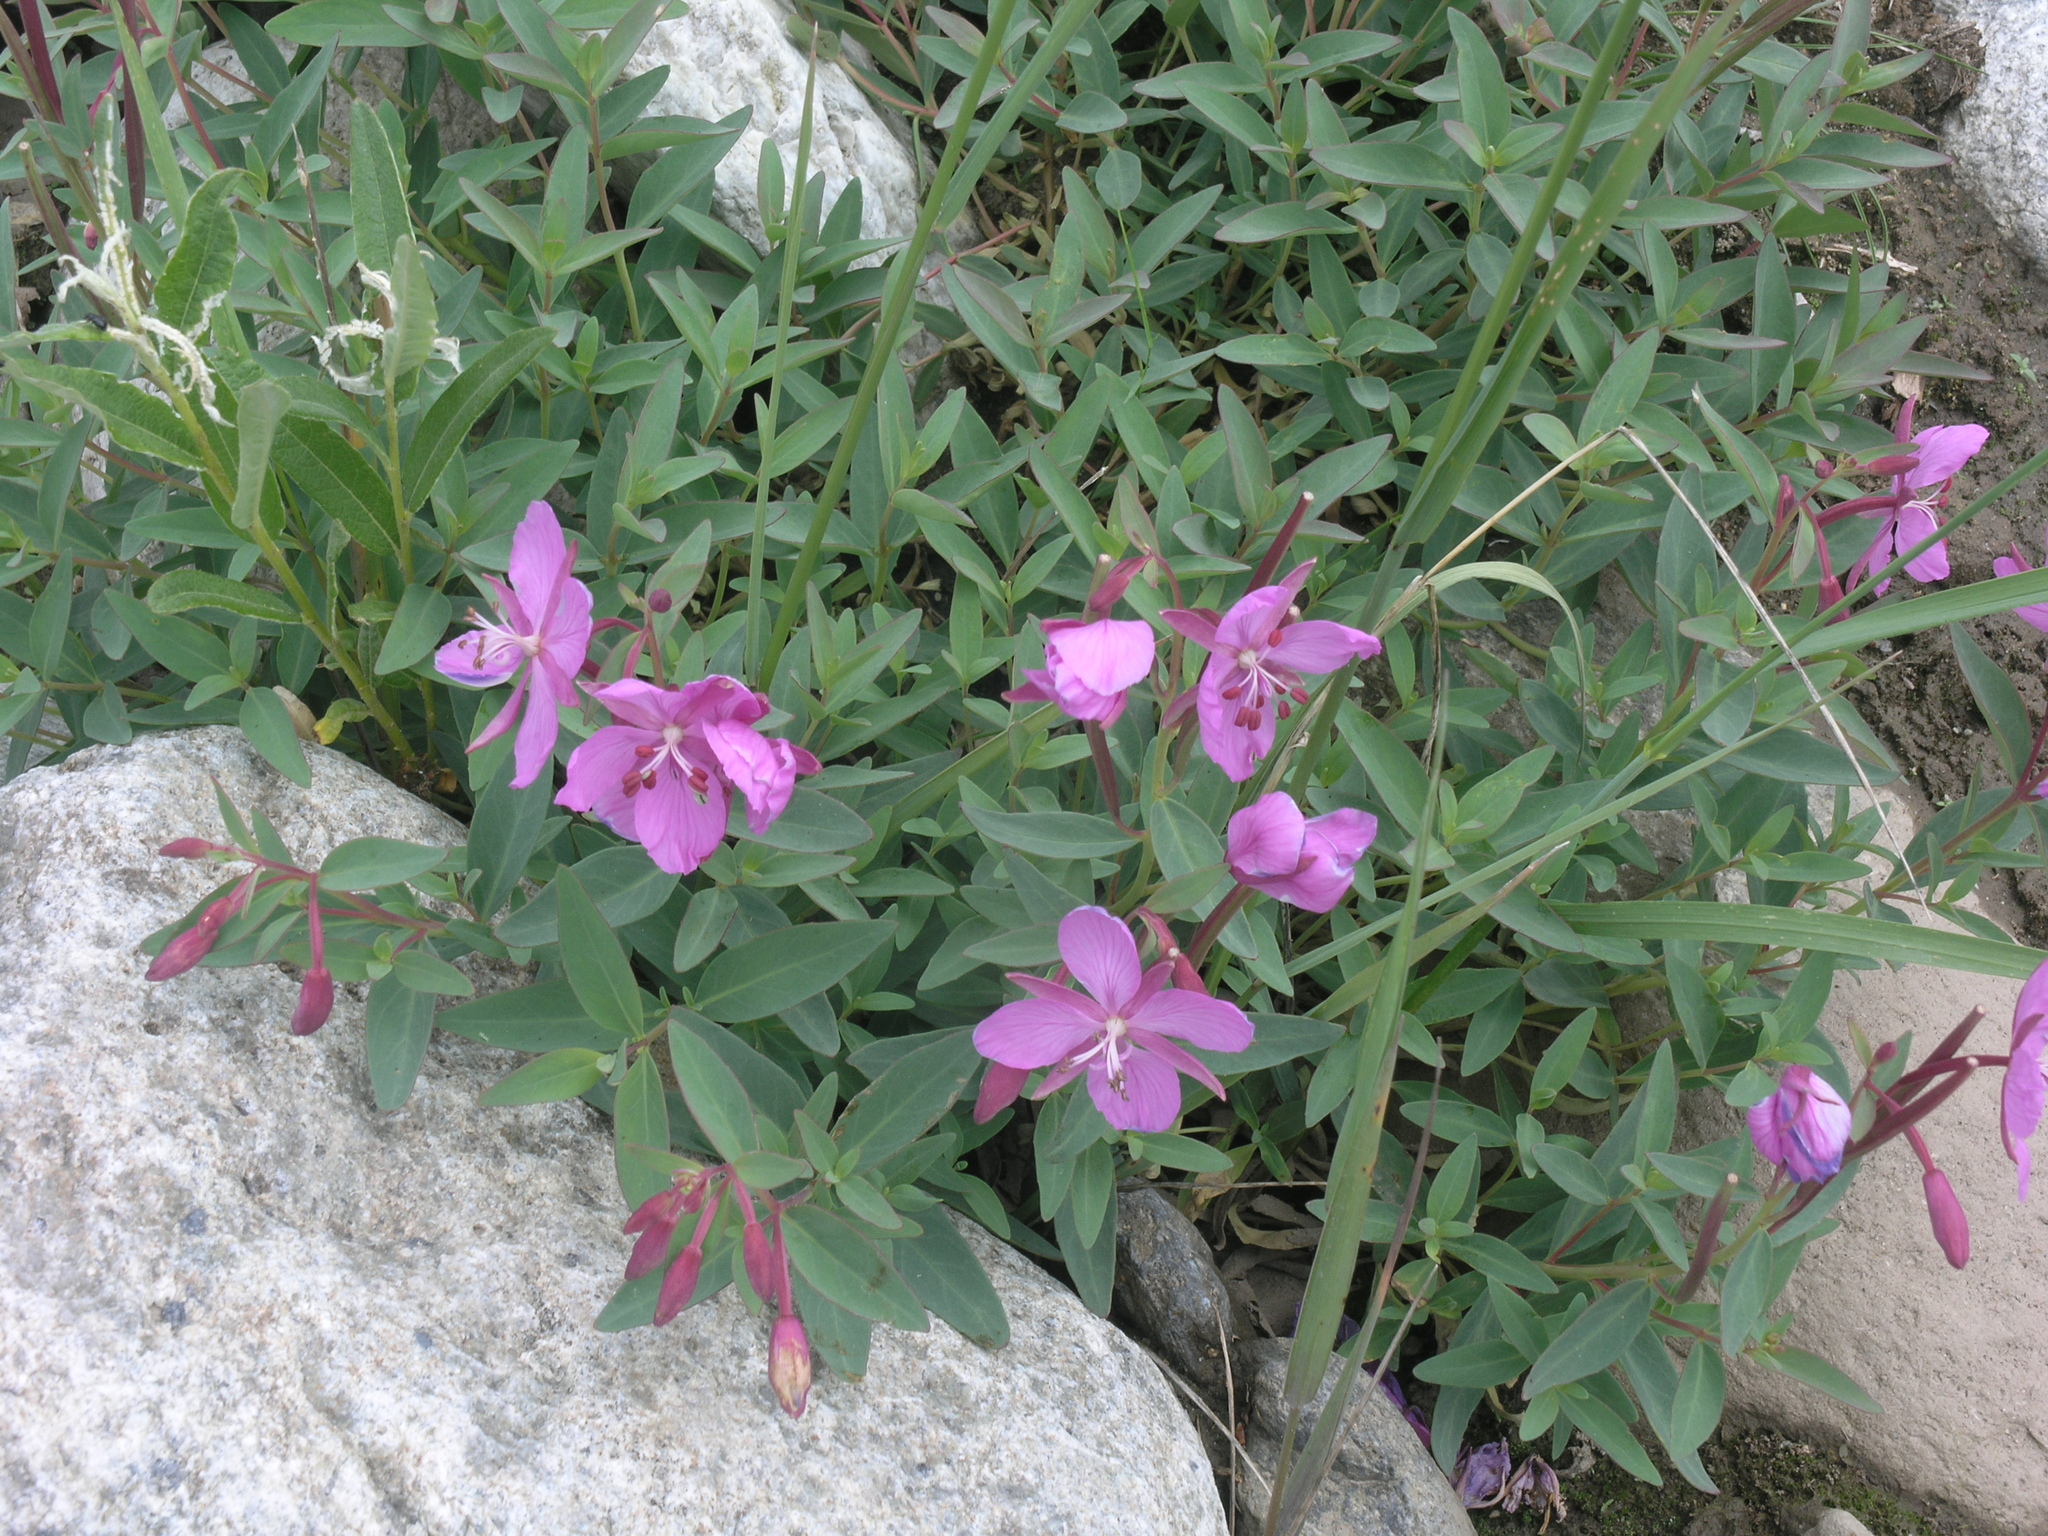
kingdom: Plantae
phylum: Tracheophyta
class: Magnoliopsida
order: Myrtales
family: Onagraceae
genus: Chamaenerion
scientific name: Chamaenerion latifolium
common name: Dwarf fireweed
